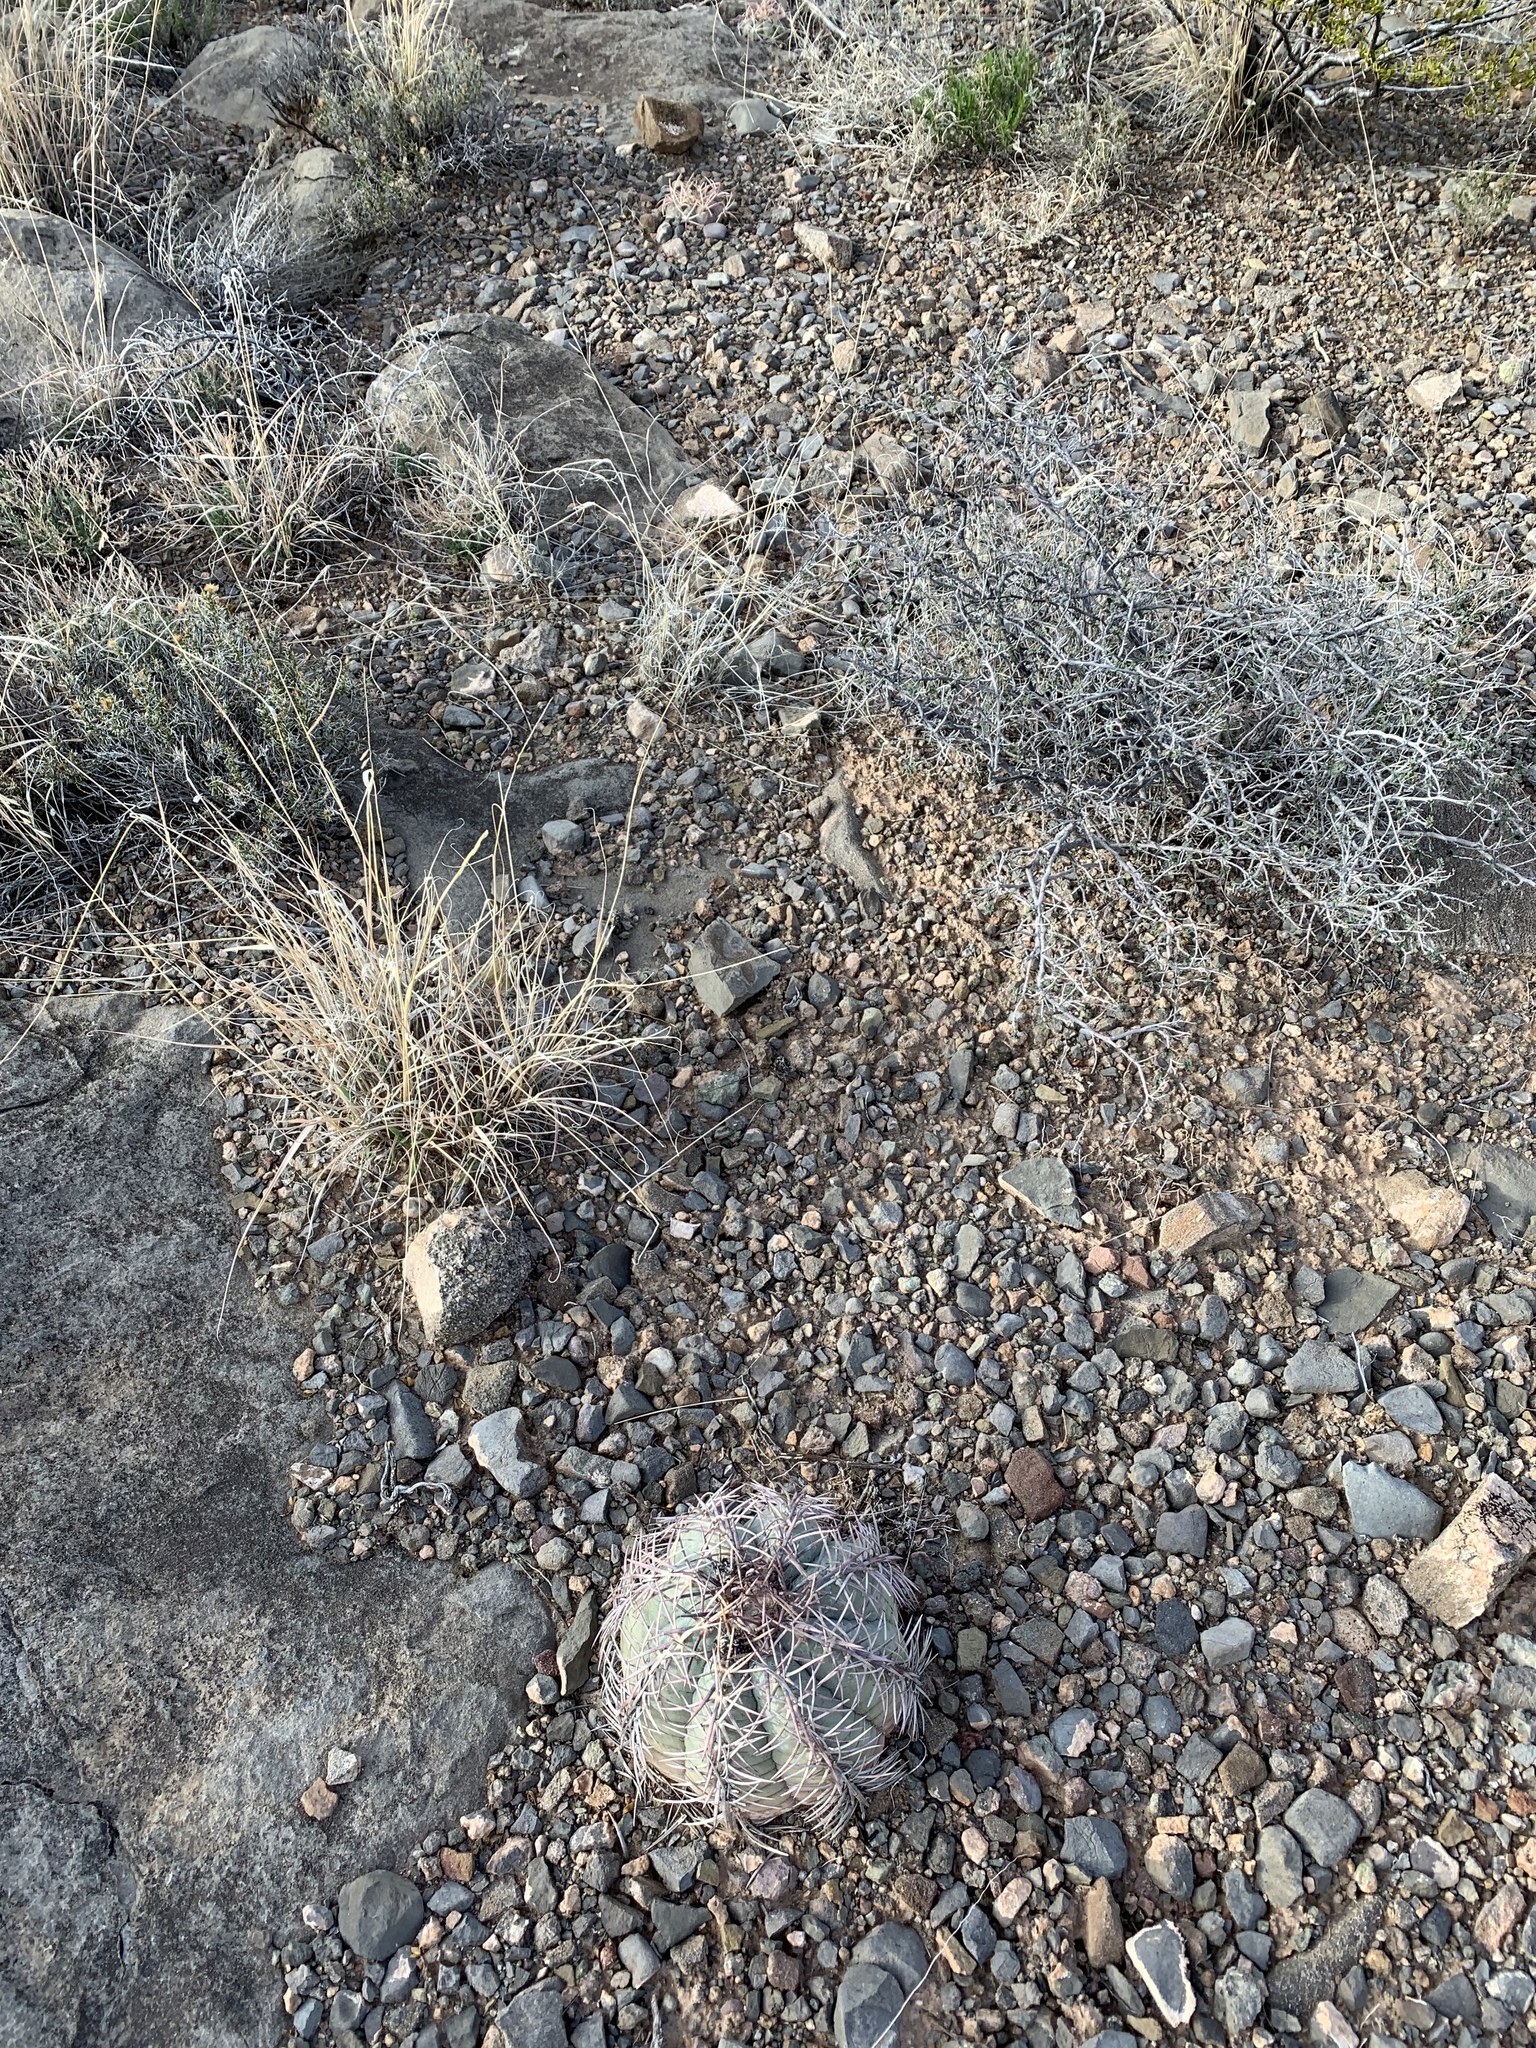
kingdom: Plantae
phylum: Tracheophyta
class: Magnoliopsida
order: Caryophyllales
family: Cactaceae
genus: Echinocactus
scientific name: Echinocactus horizonthalonius
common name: Devilshead
